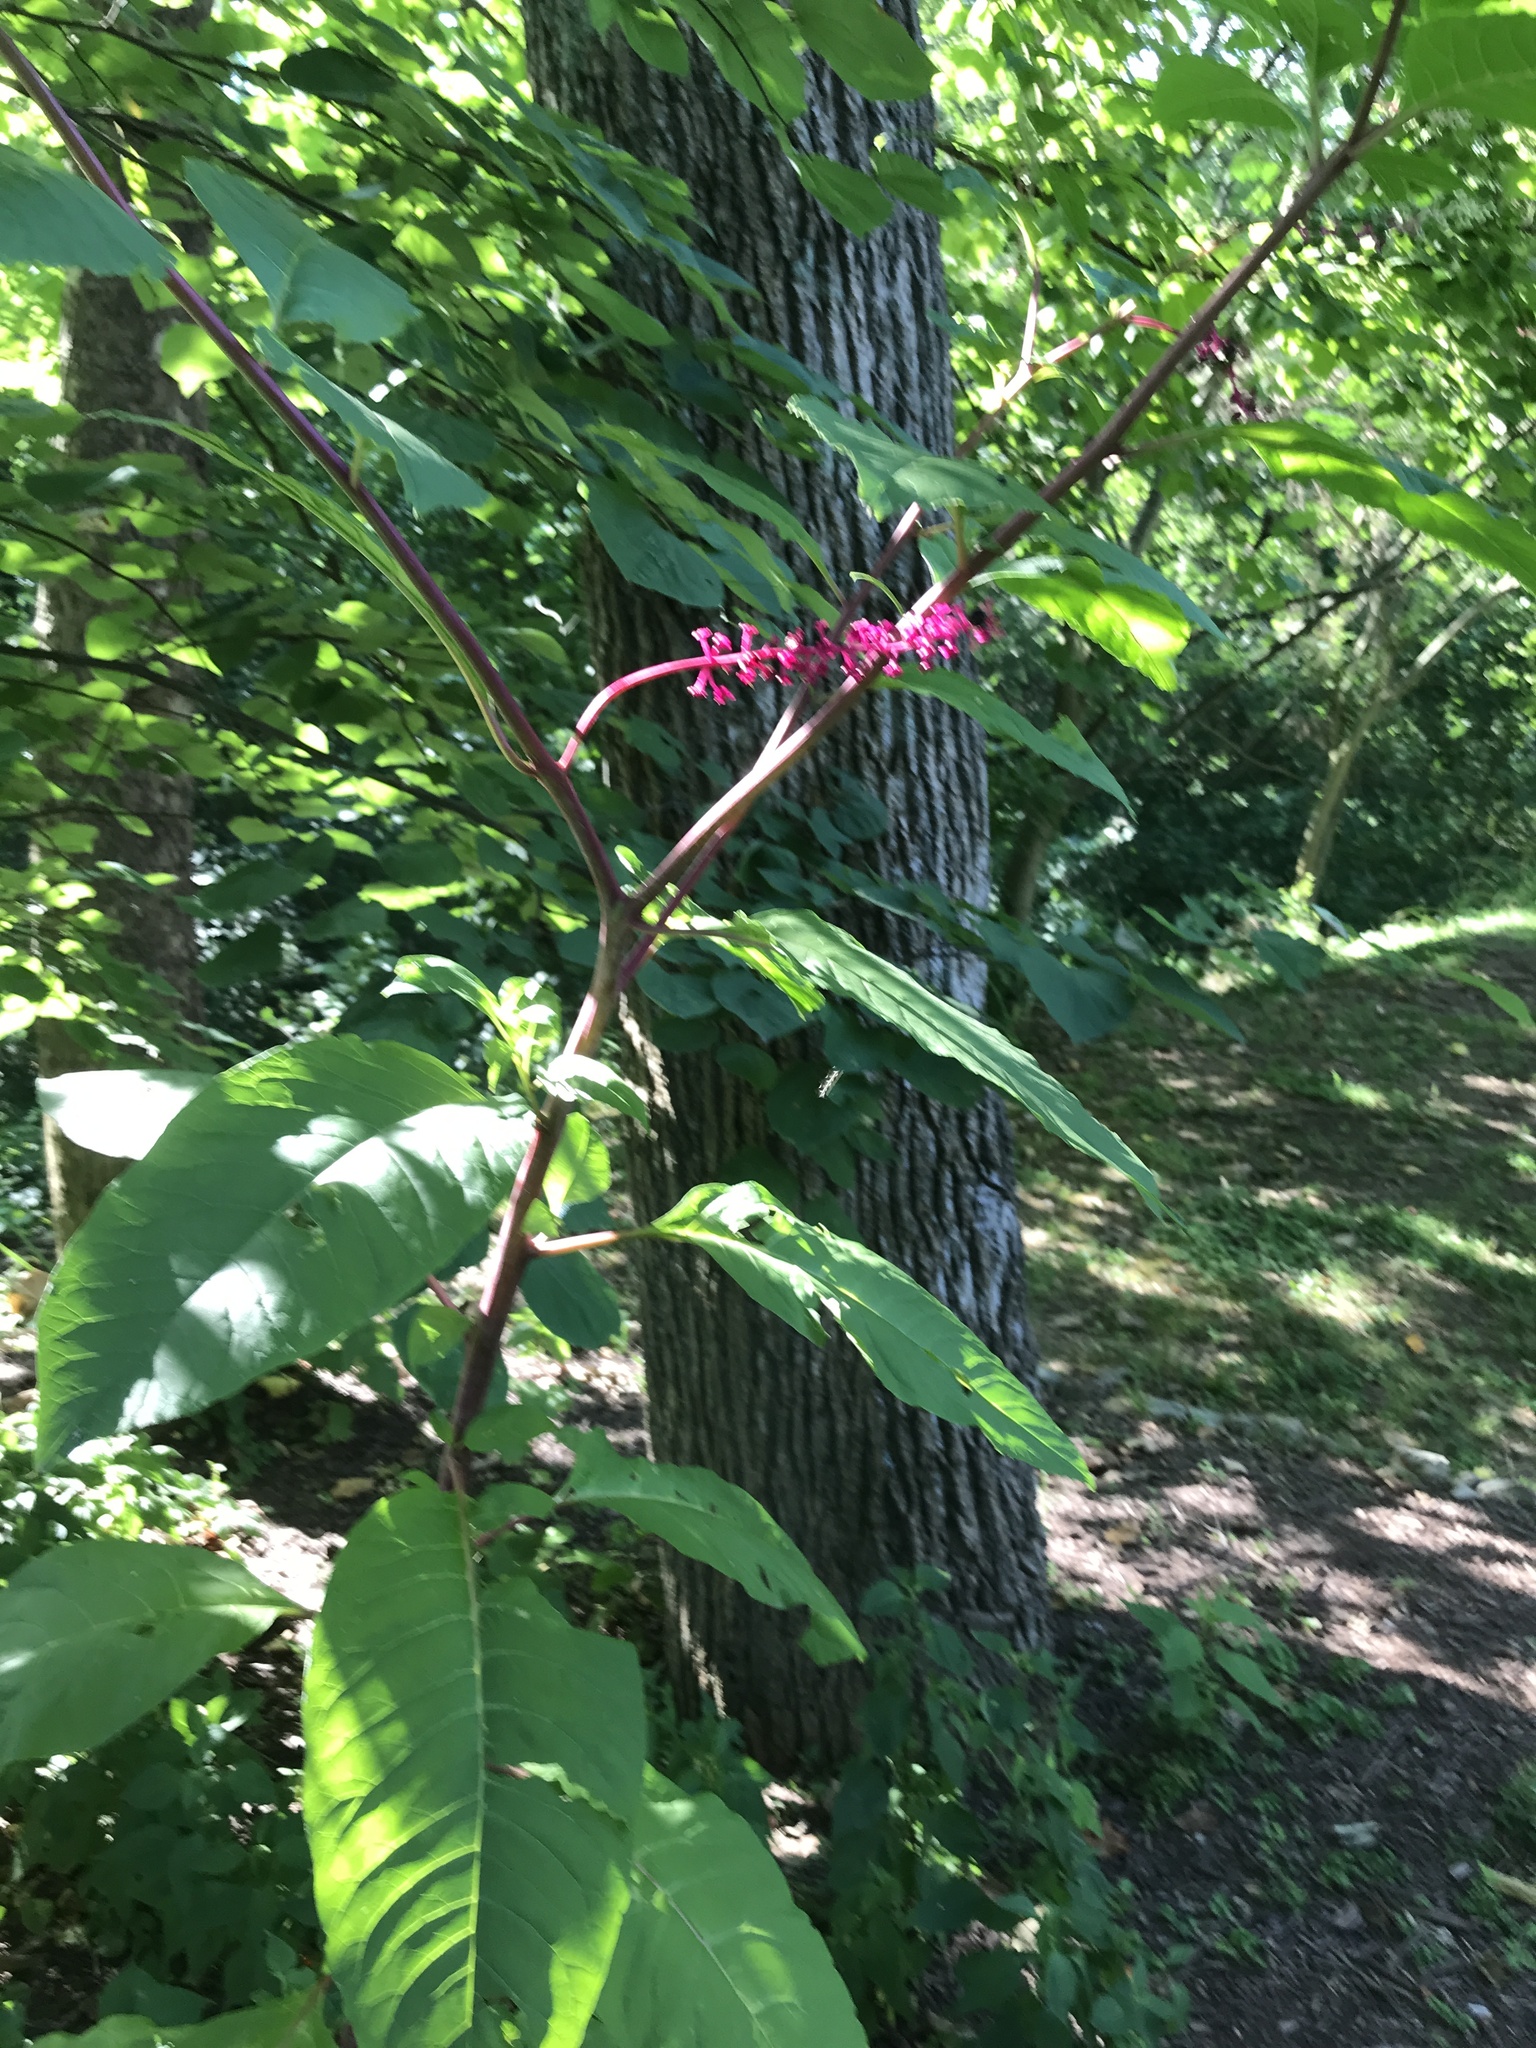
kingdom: Plantae
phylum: Tracheophyta
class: Magnoliopsida
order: Caryophyllales
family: Phytolaccaceae
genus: Phytolacca
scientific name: Phytolacca americana
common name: American pokeweed
